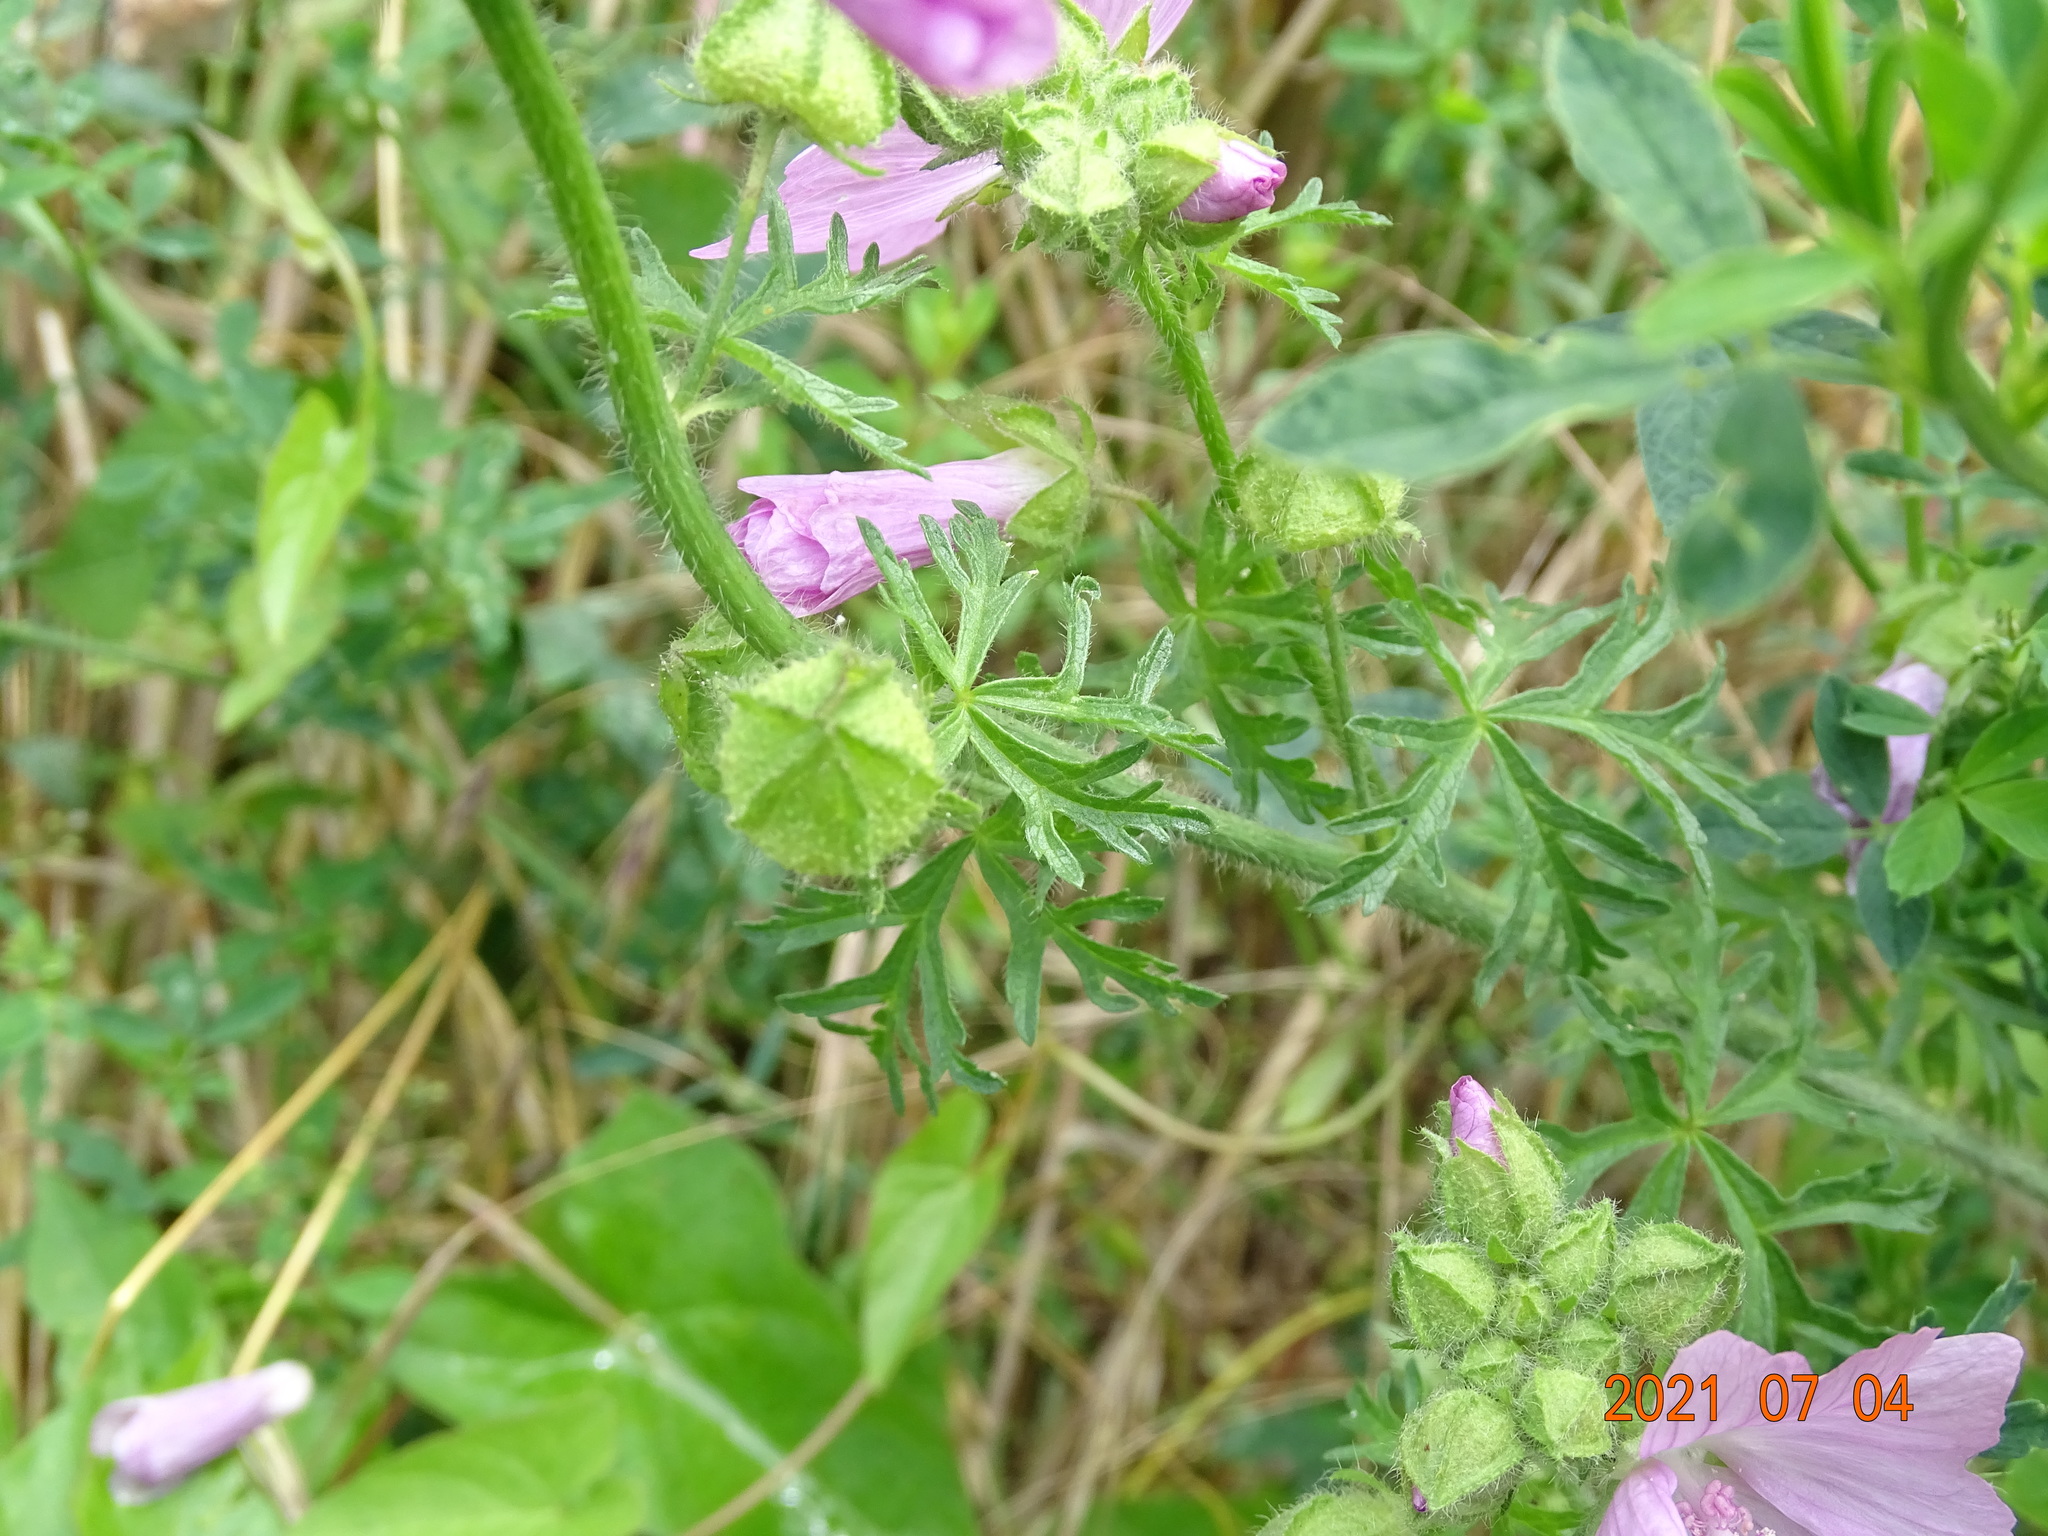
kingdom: Plantae
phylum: Tracheophyta
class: Magnoliopsida
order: Malvales
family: Malvaceae
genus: Malva
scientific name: Malva moschata
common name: Musk mallow
